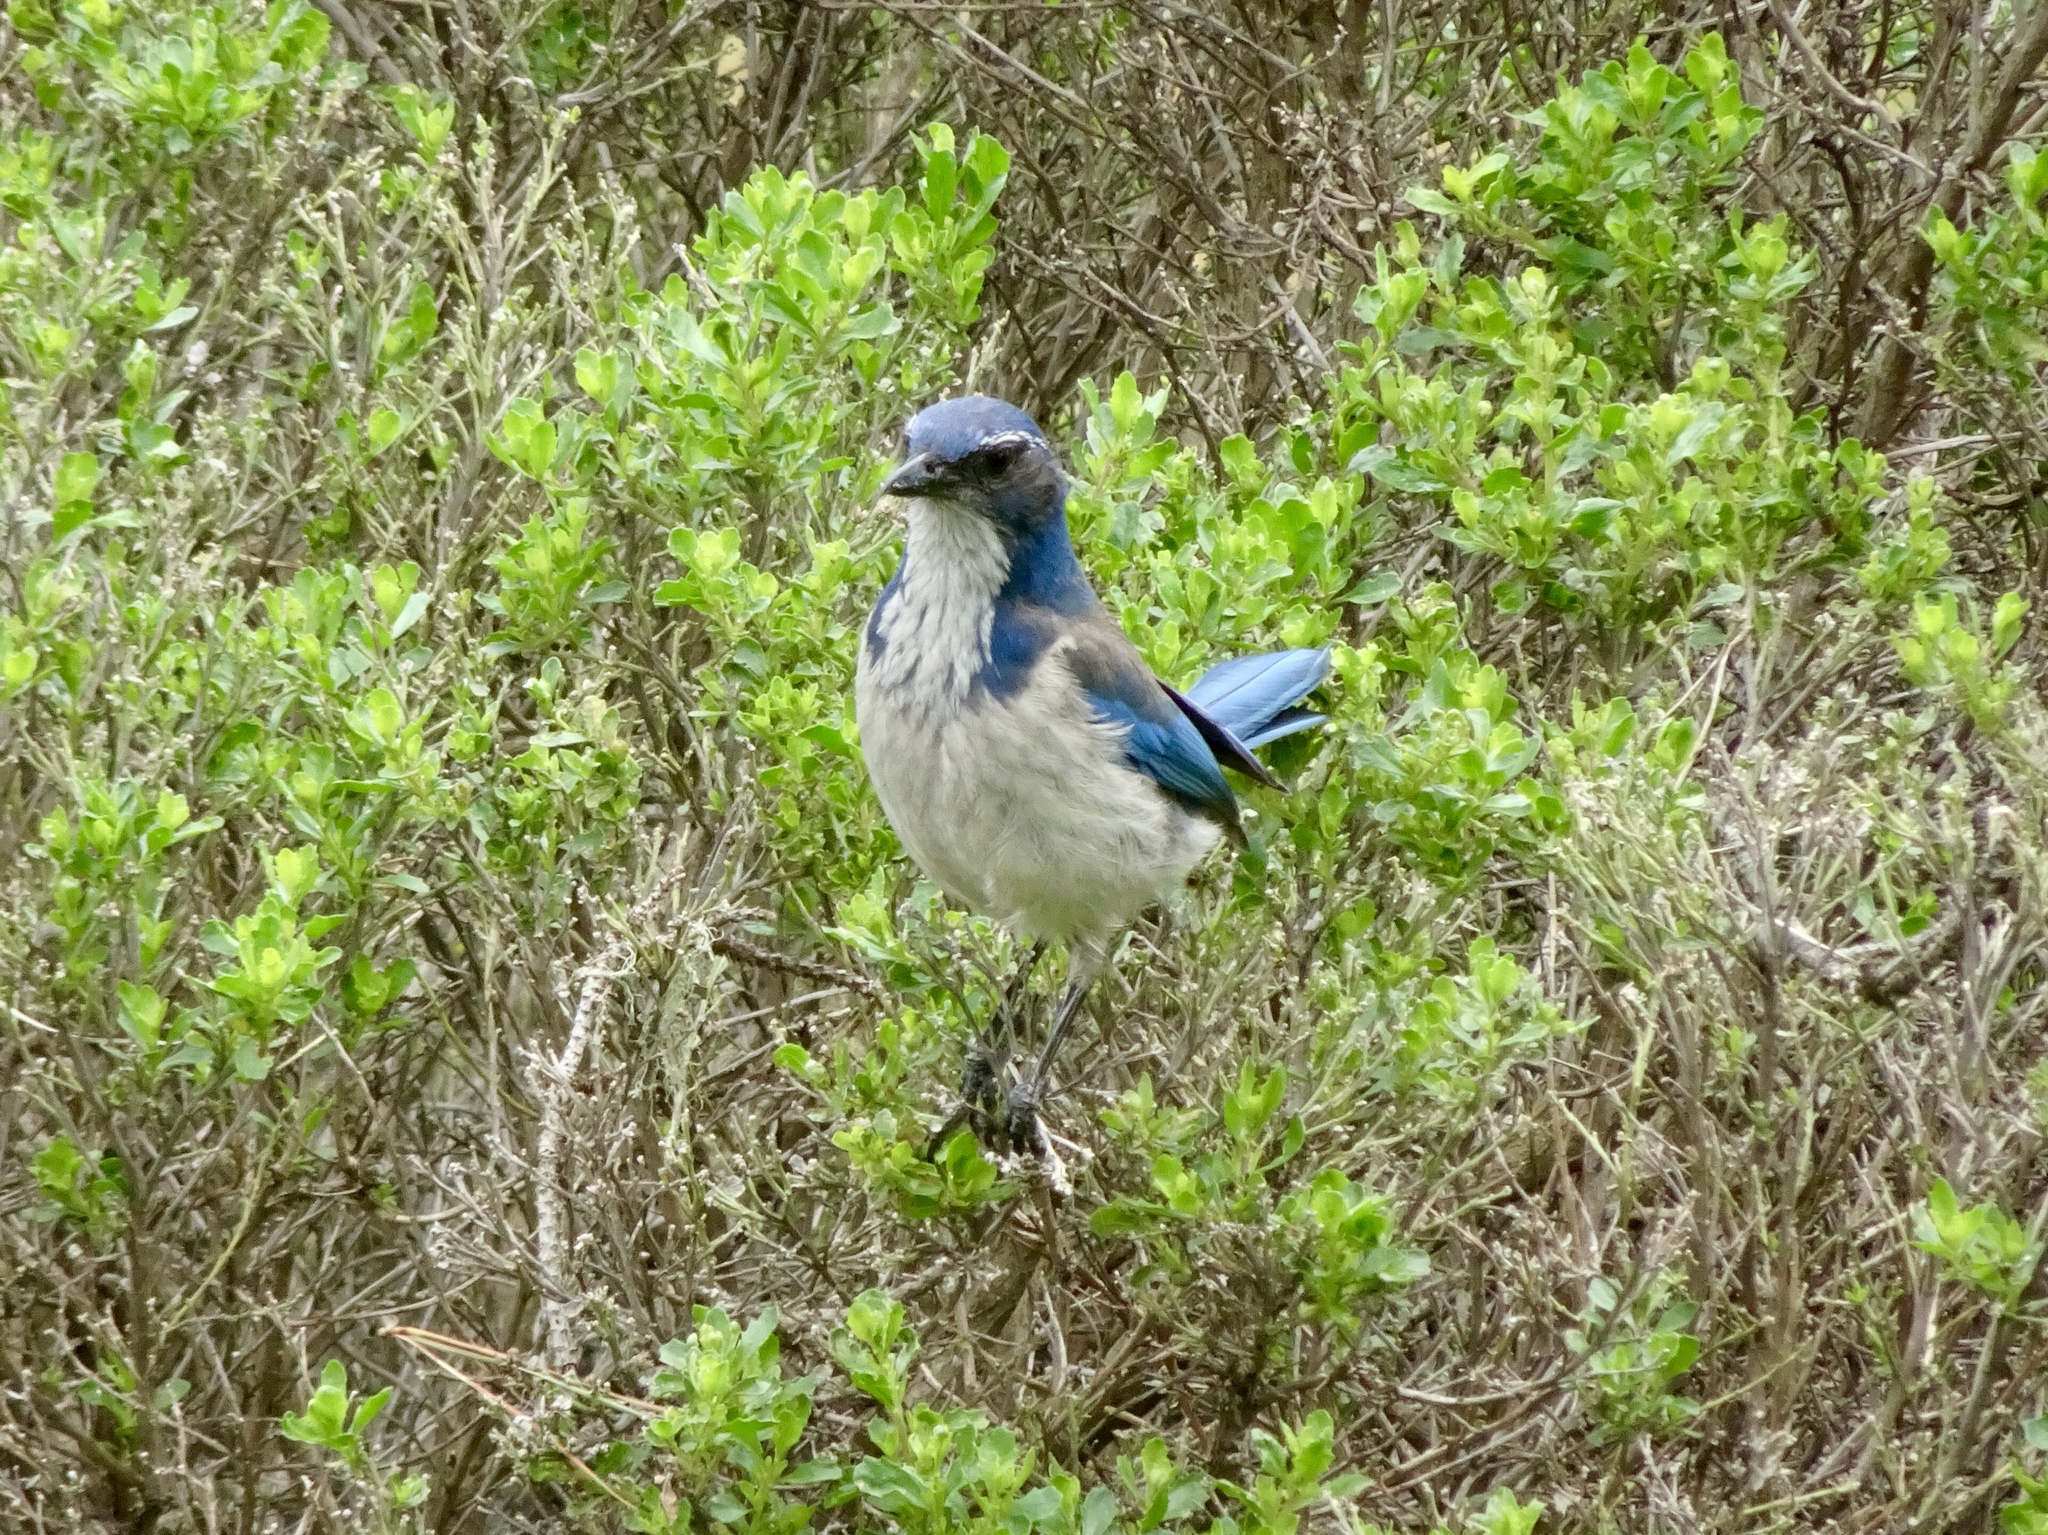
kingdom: Animalia
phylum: Chordata
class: Aves
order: Passeriformes
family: Corvidae
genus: Aphelocoma
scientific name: Aphelocoma californica
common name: California scrub-jay
